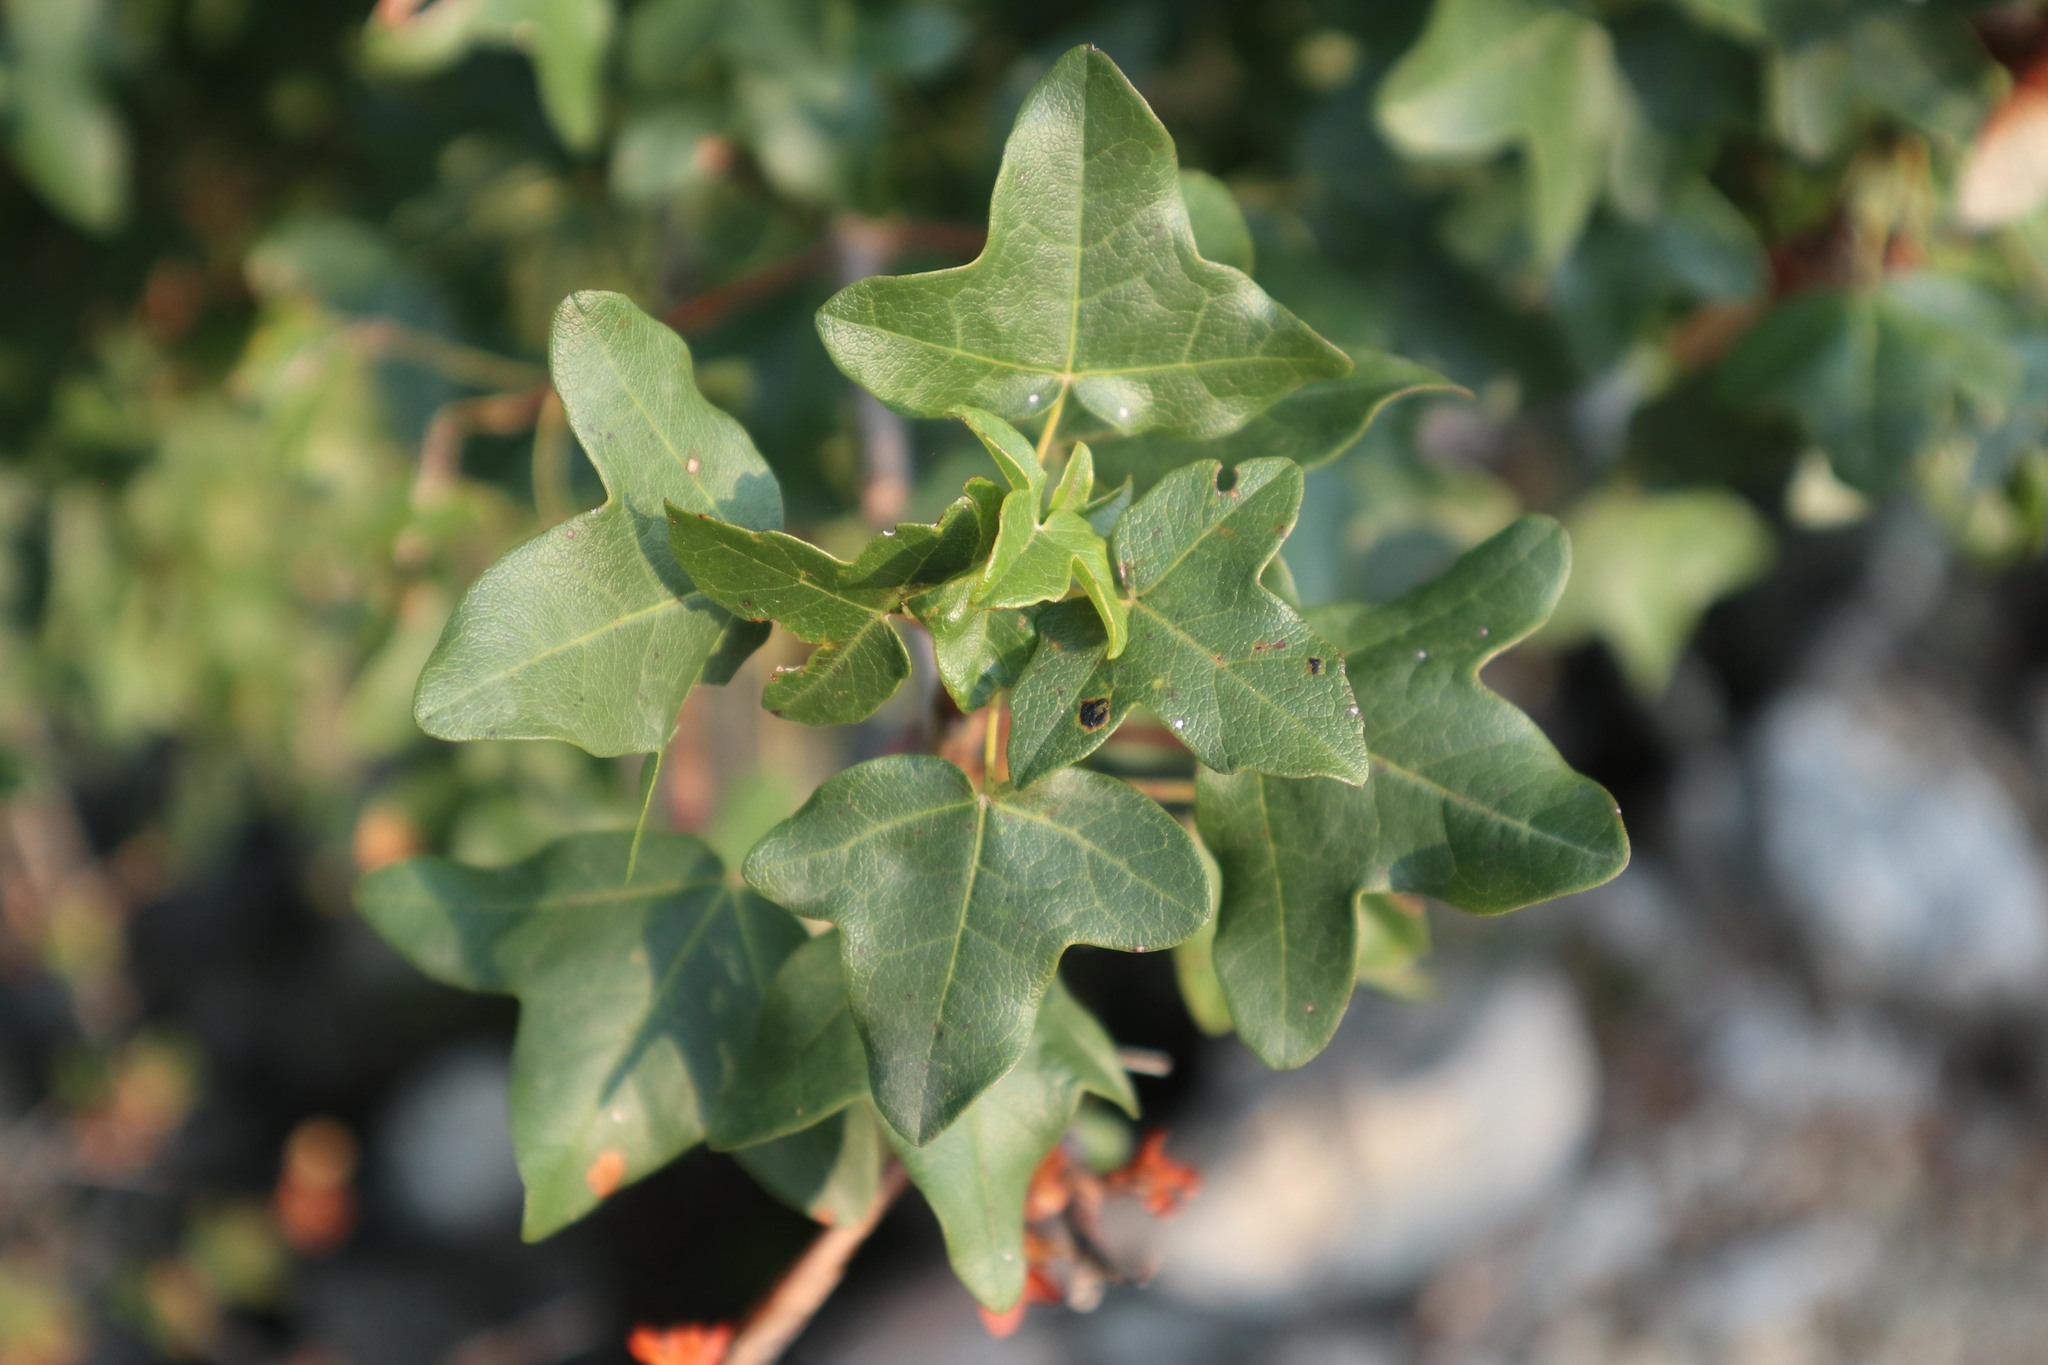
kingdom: Plantae
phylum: Tracheophyta
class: Magnoliopsida
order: Sapindales
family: Sapindaceae
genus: Acer
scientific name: Acer monspessulanum
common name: Montpellier maple
